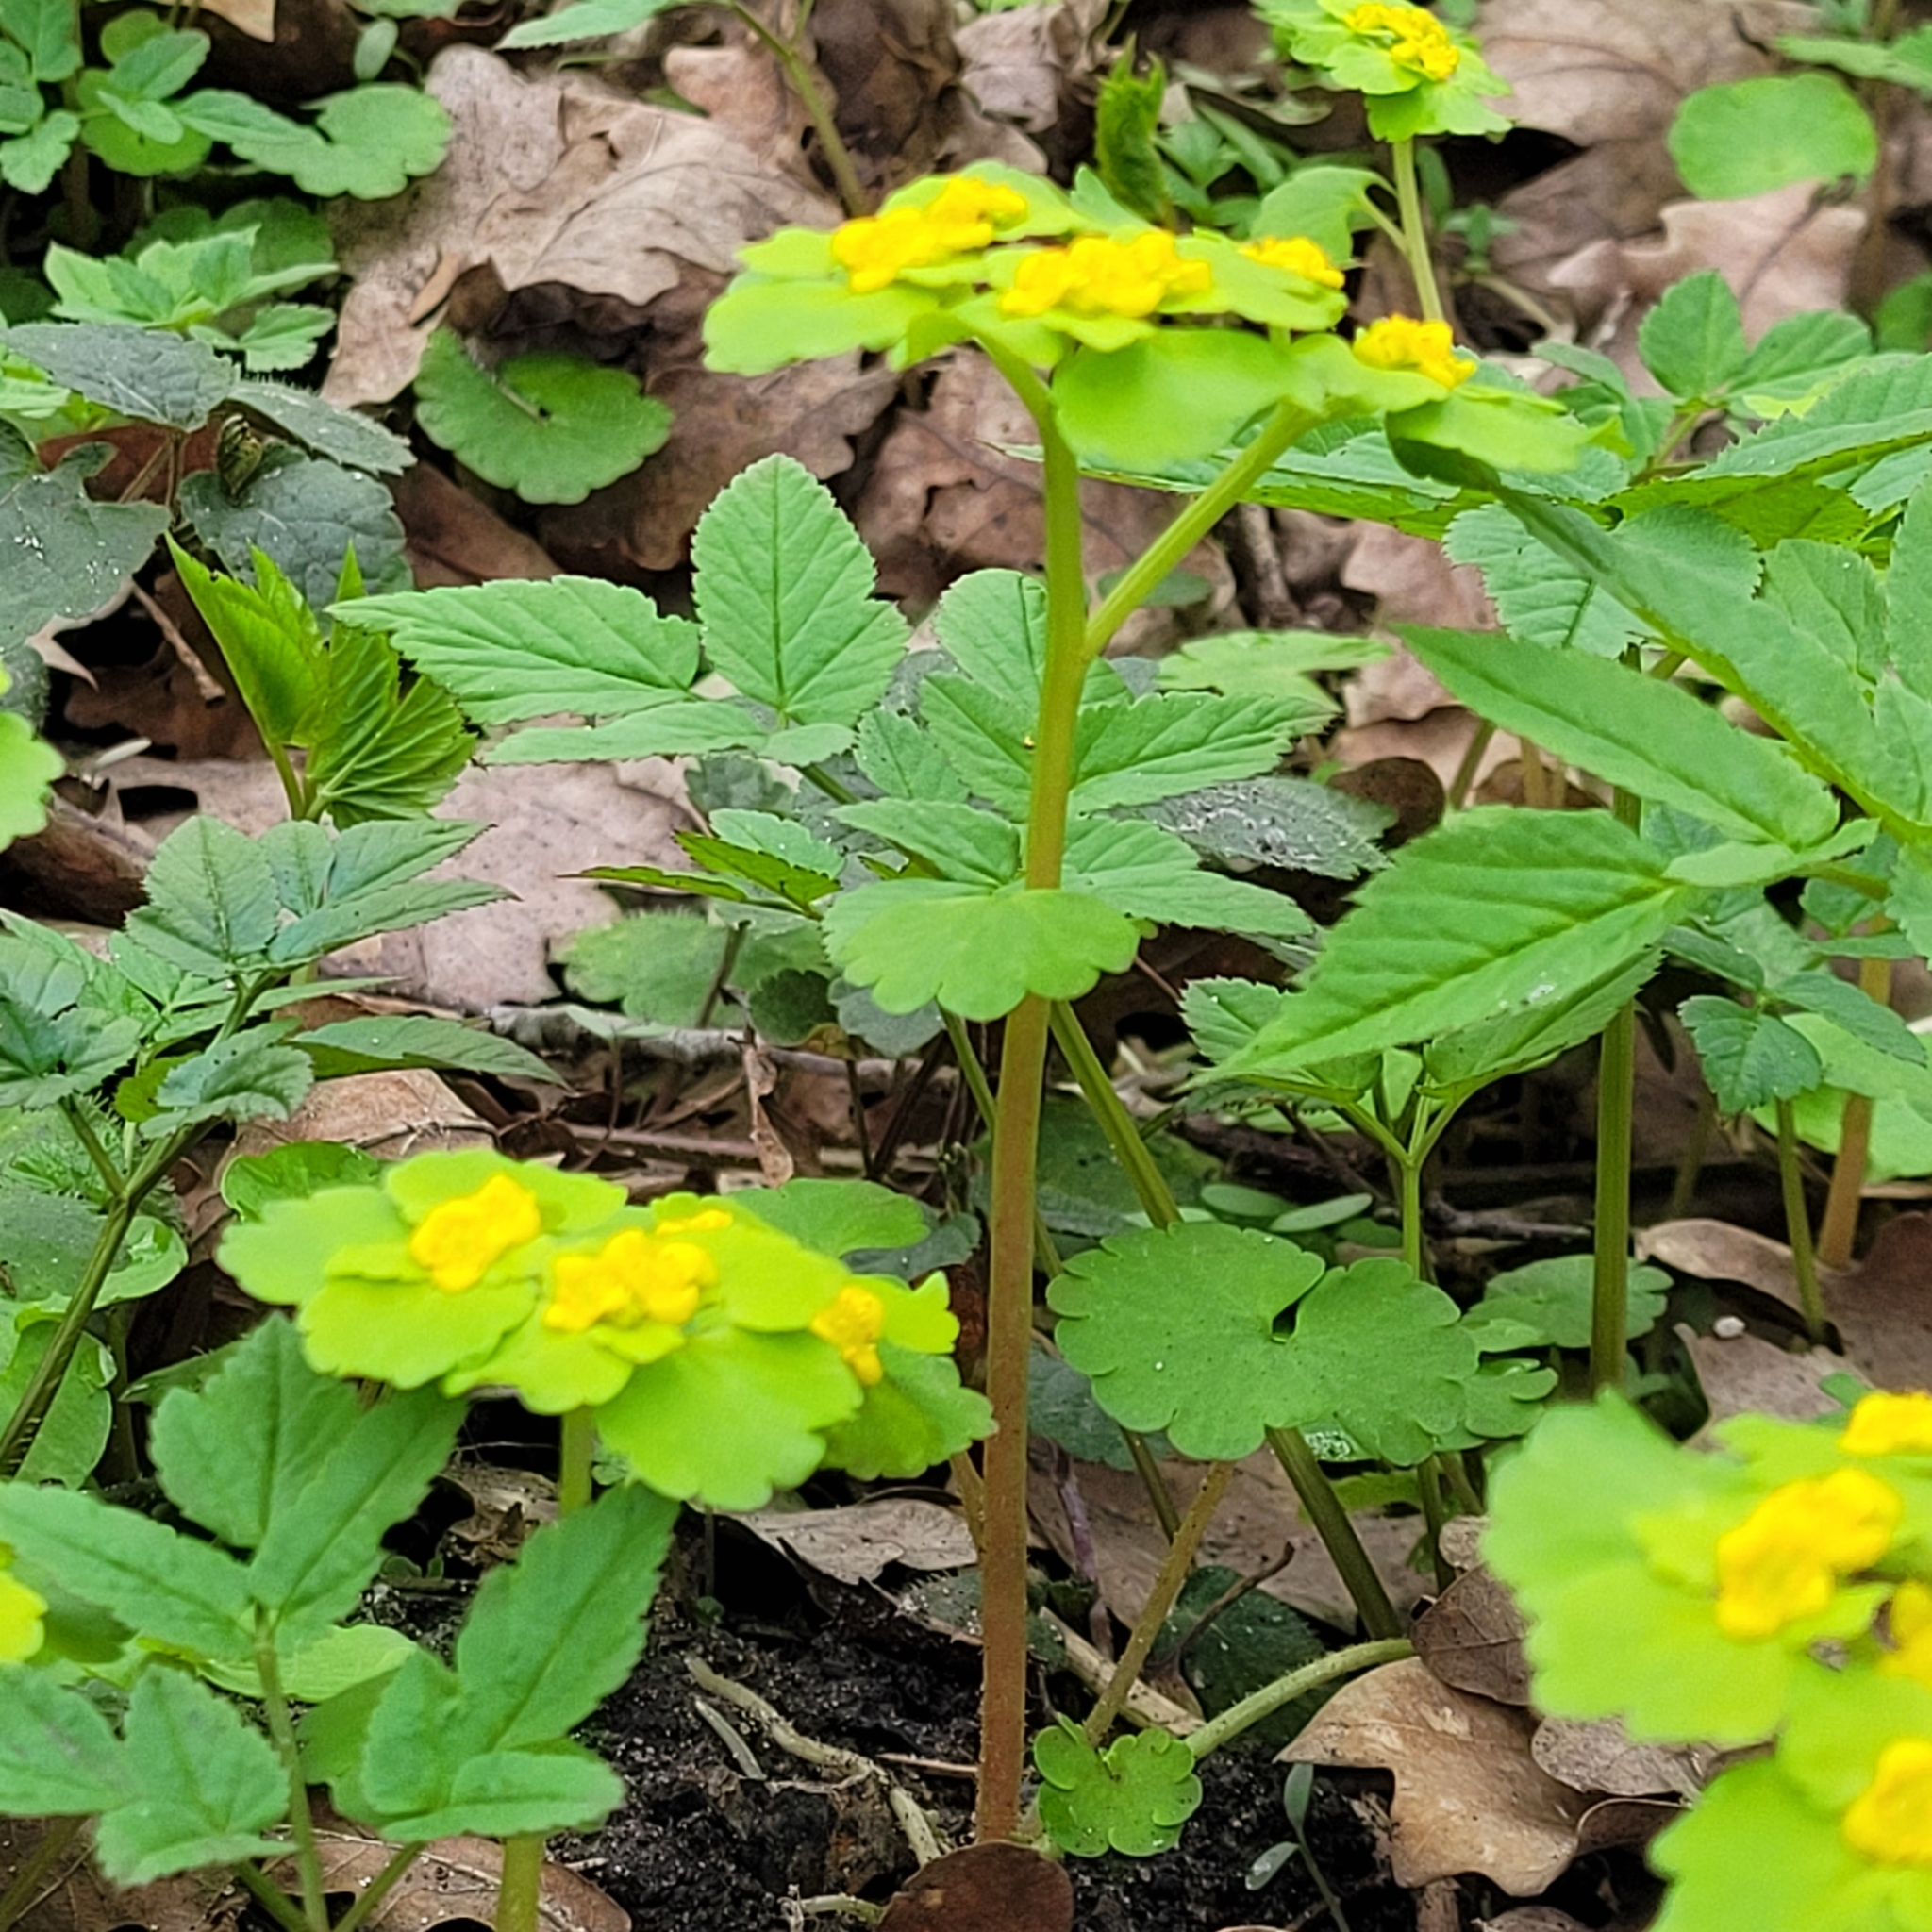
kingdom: Plantae
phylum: Tracheophyta
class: Magnoliopsida
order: Saxifragales
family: Saxifragaceae
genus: Chrysosplenium
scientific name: Chrysosplenium alternifolium
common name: Alternate-leaved golden-saxifrage
